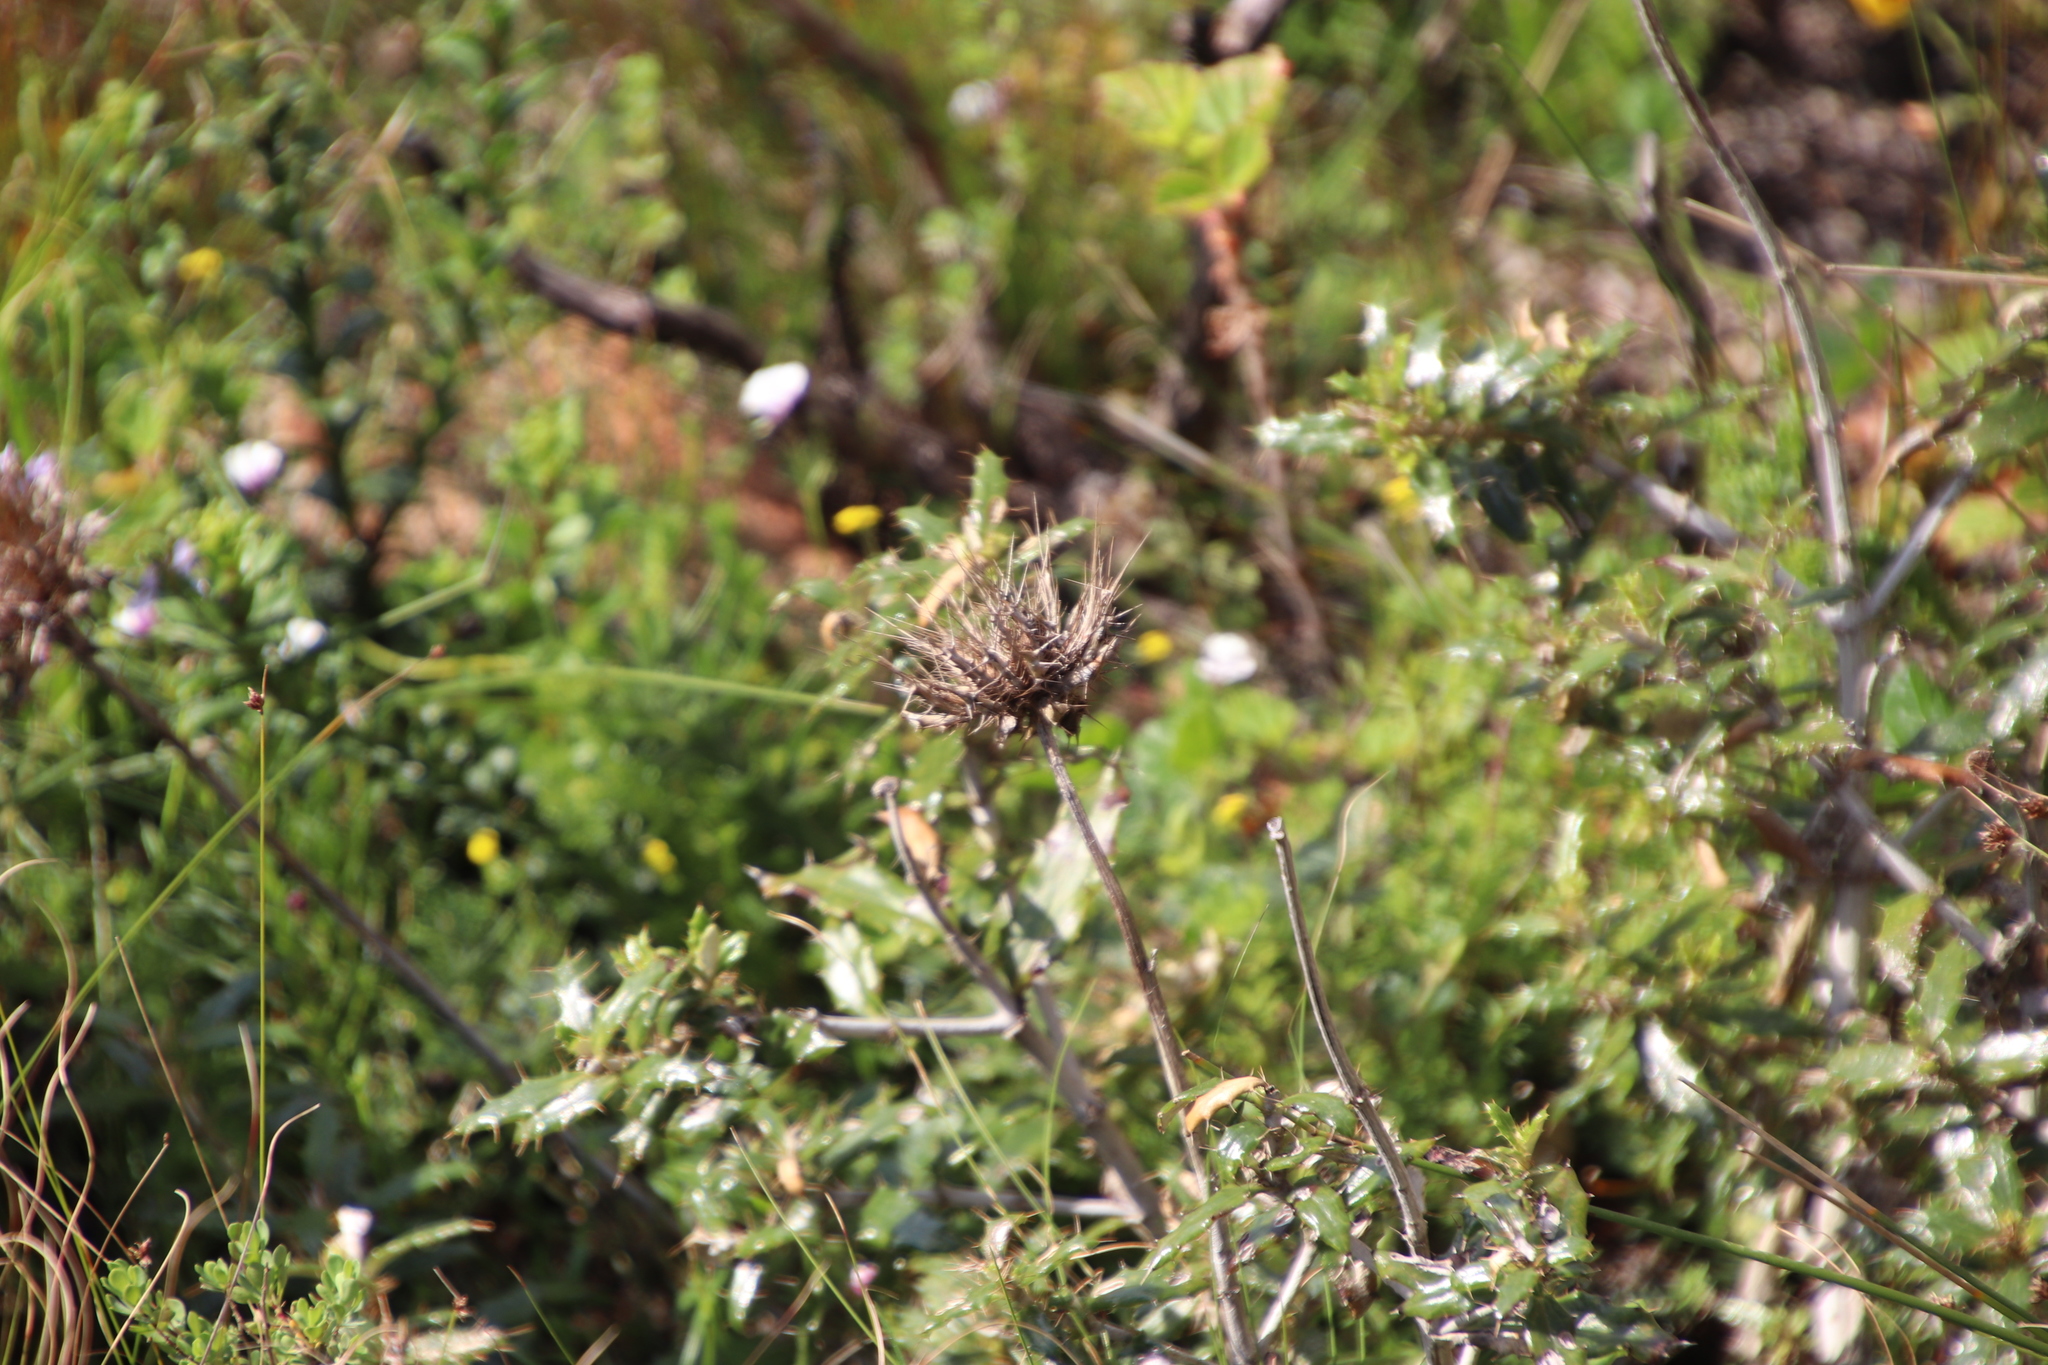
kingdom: Plantae
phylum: Tracheophyta
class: Magnoliopsida
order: Asterales
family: Asteraceae
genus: Berkheya
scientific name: Berkheya barbata
